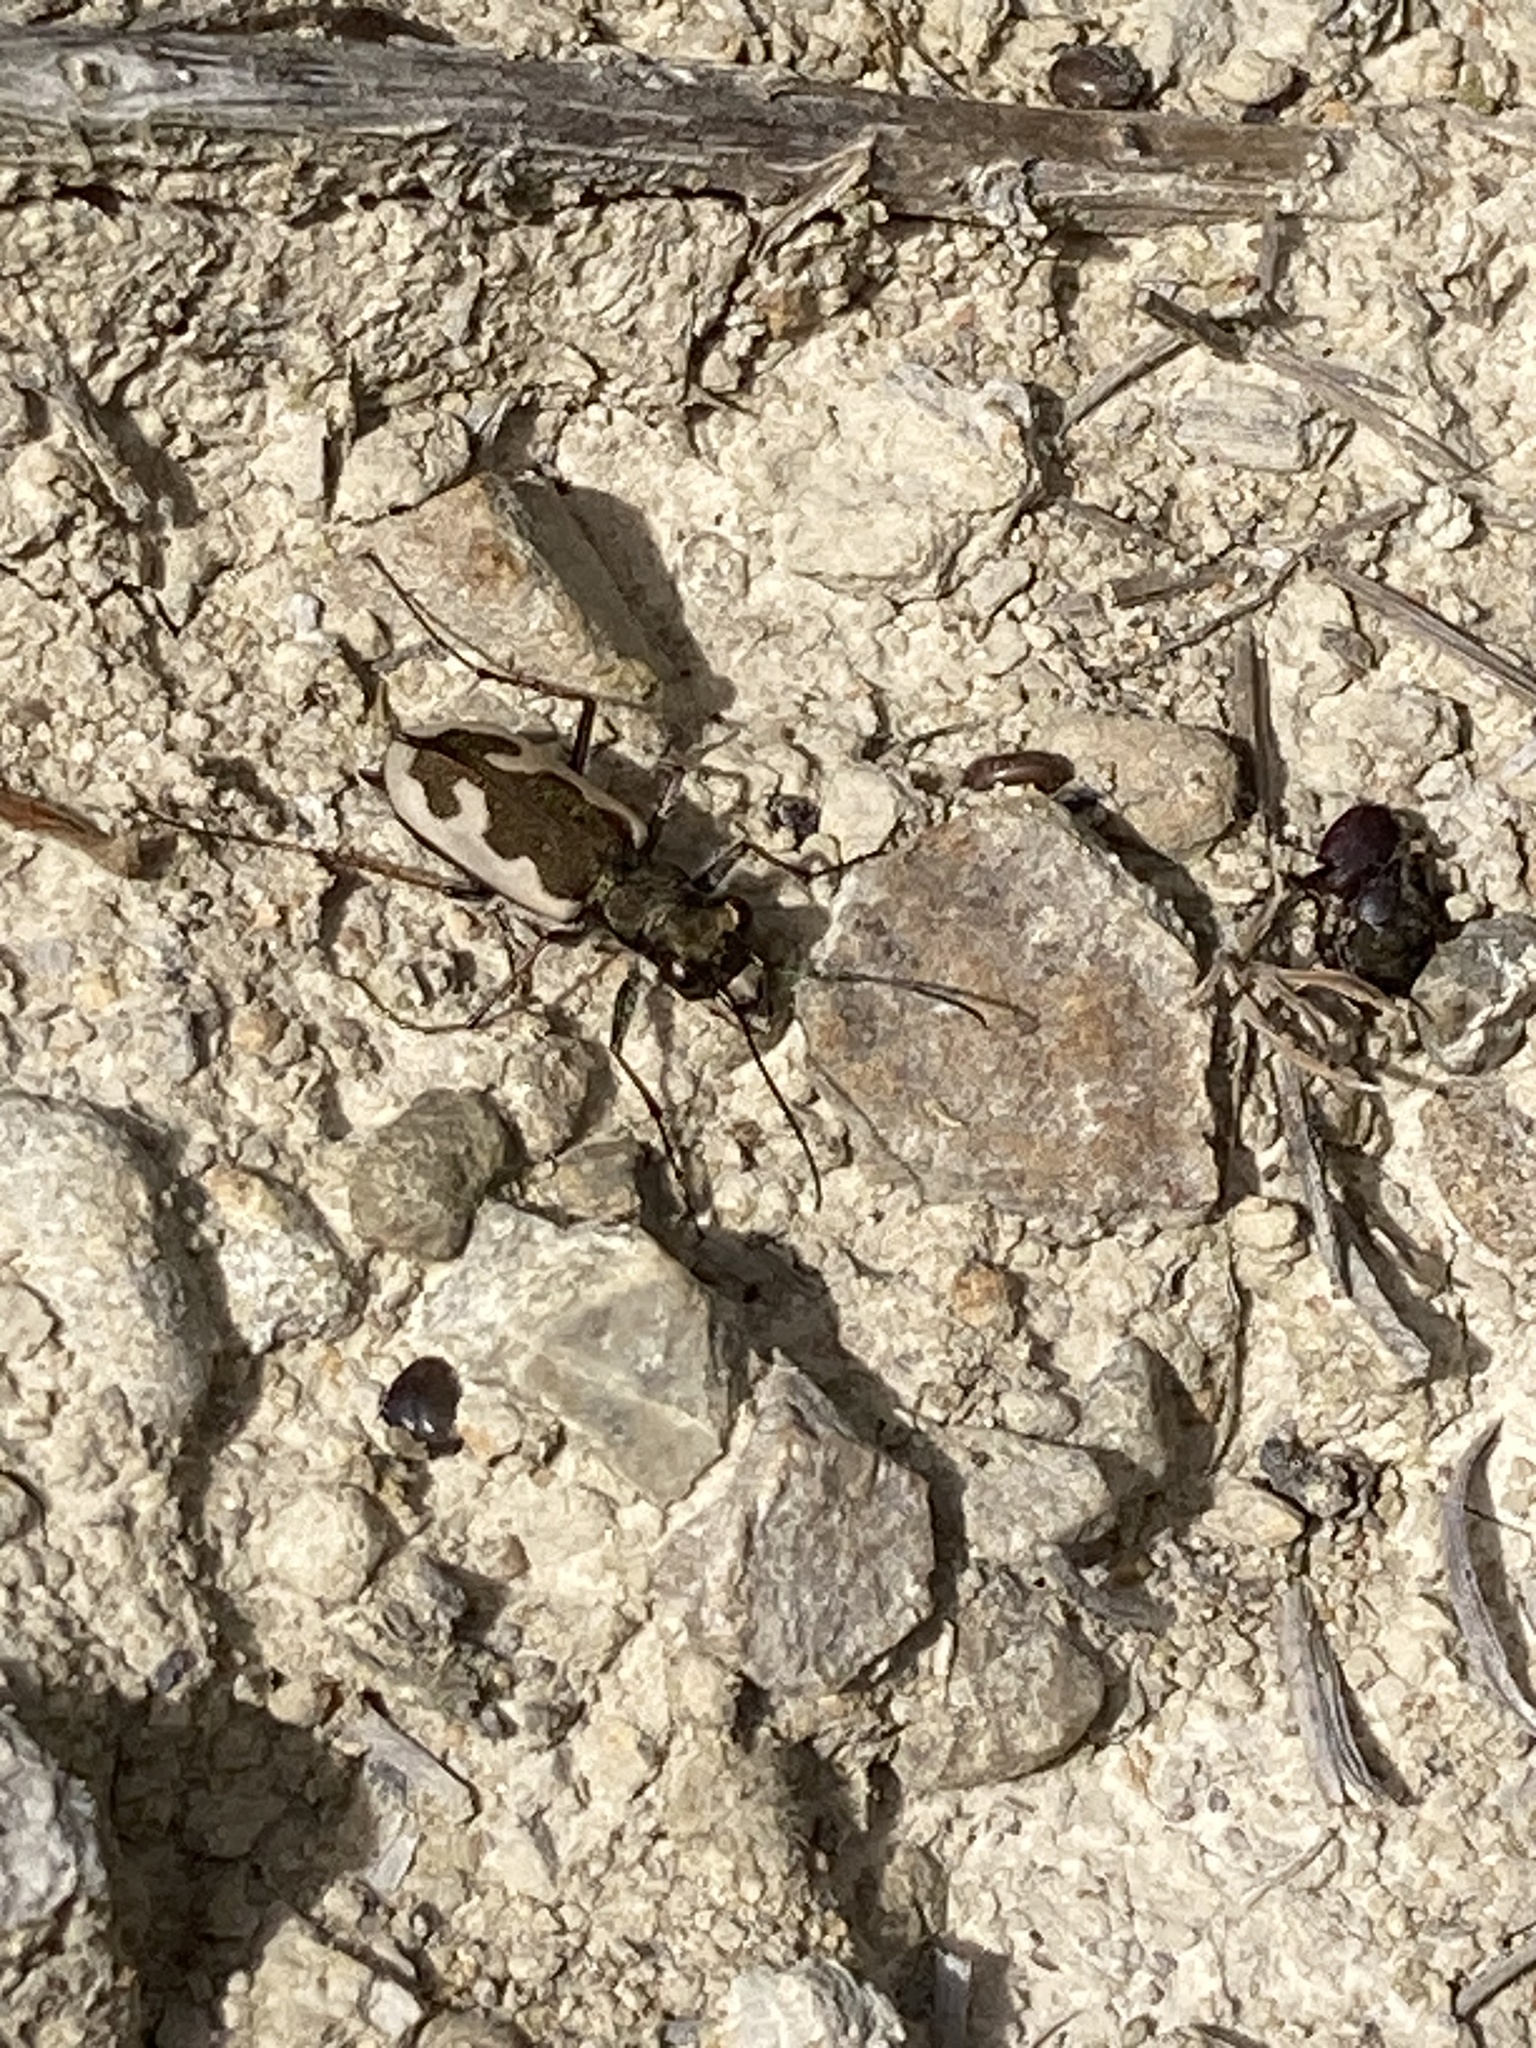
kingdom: Animalia
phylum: Arthropoda
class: Insecta
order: Coleoptera
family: Carabidae
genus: Neocicindela
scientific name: Neocicindela latecincta
